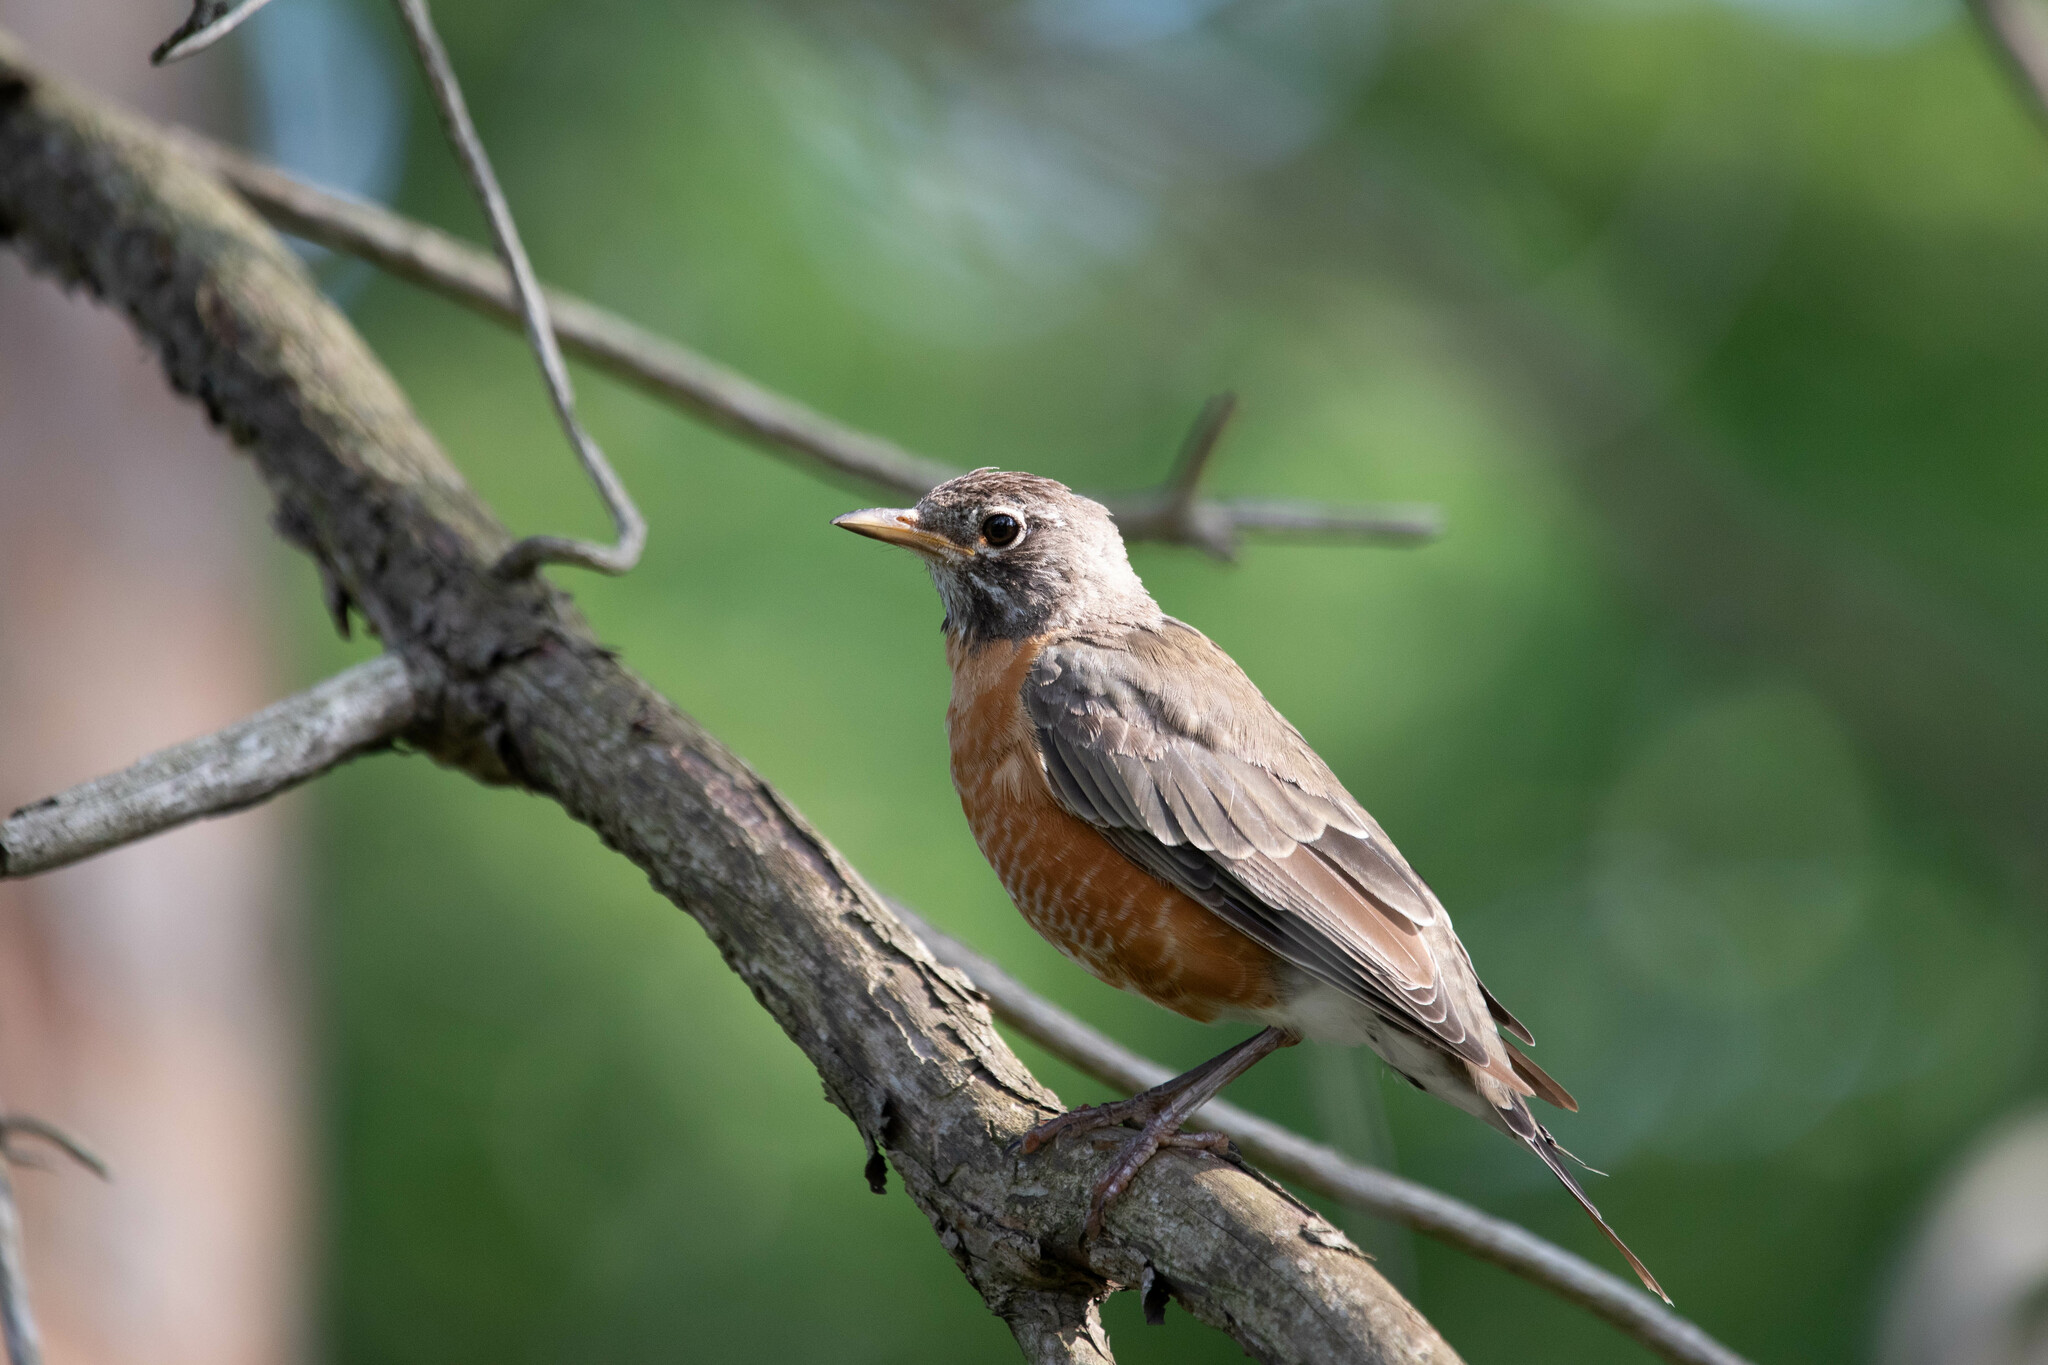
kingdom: Animalia
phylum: Chordata
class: Aves
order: Passeriformes
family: Turdidae
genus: Turdus
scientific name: Turdus migratorius
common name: American robin
